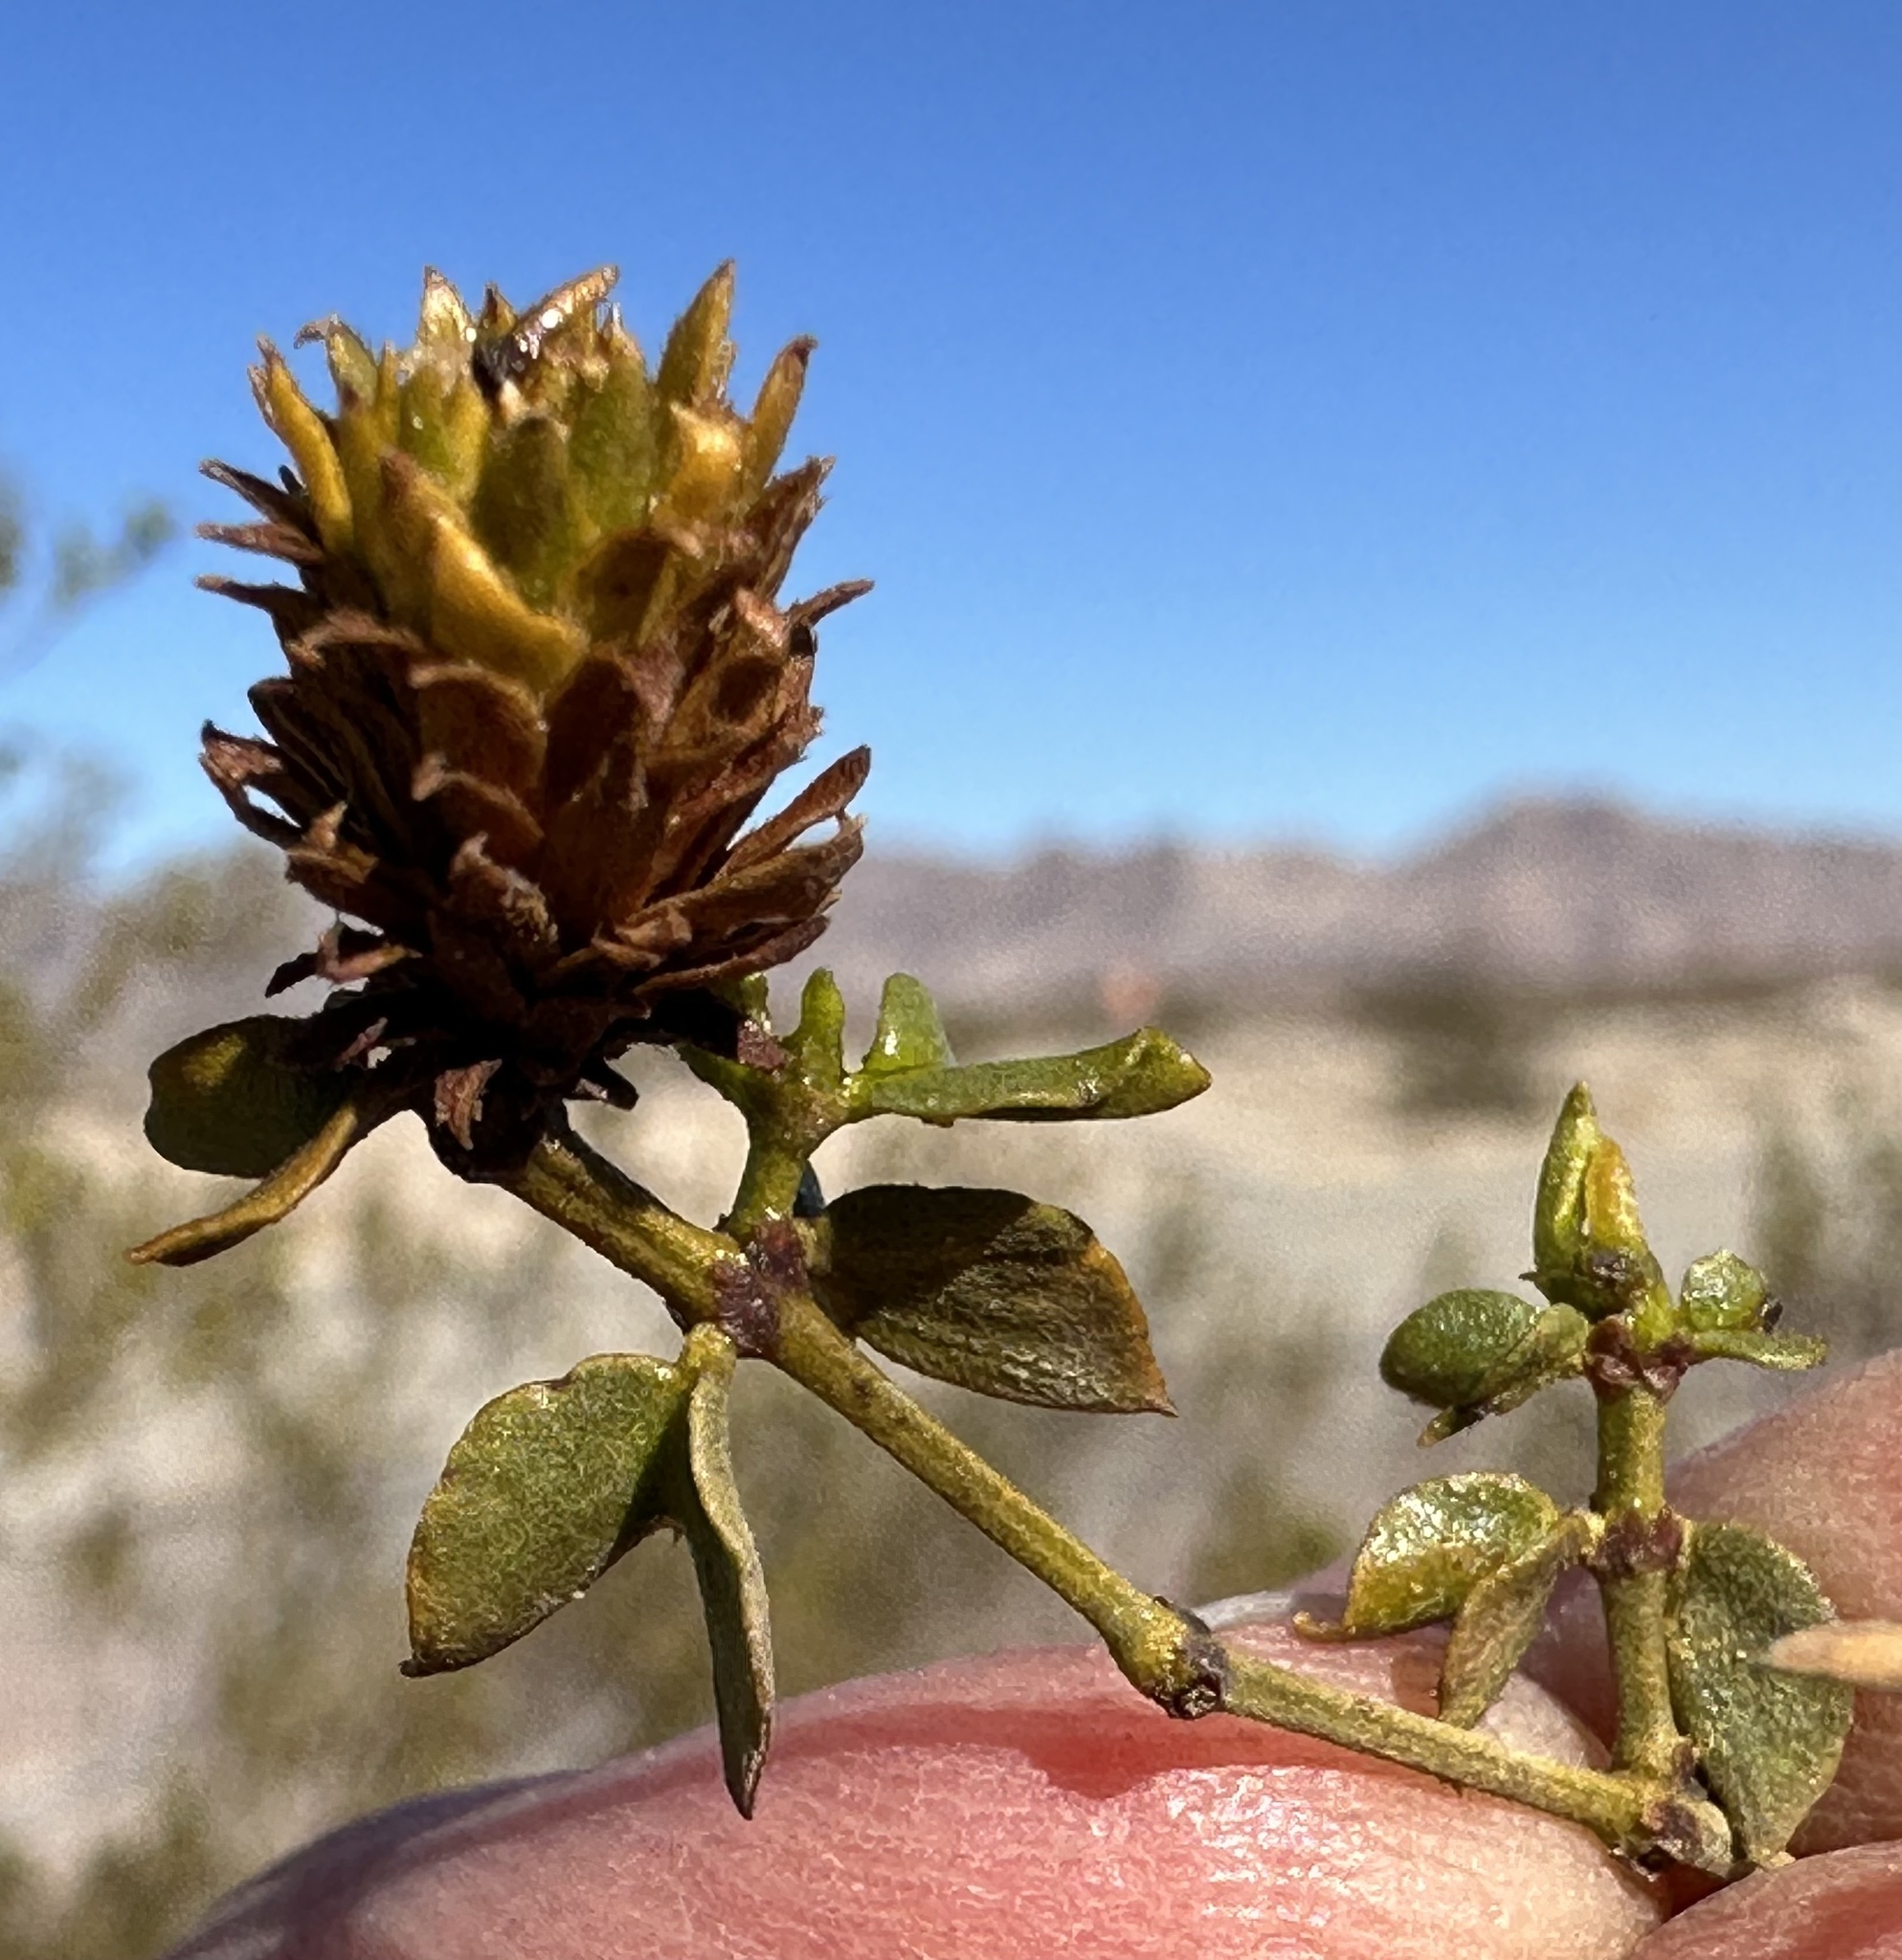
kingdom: Animalia
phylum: Arthropoda
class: Insecta
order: Diptera
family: Cecidomyiidae
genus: Asphondylia
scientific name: Asphondylia rosetta
